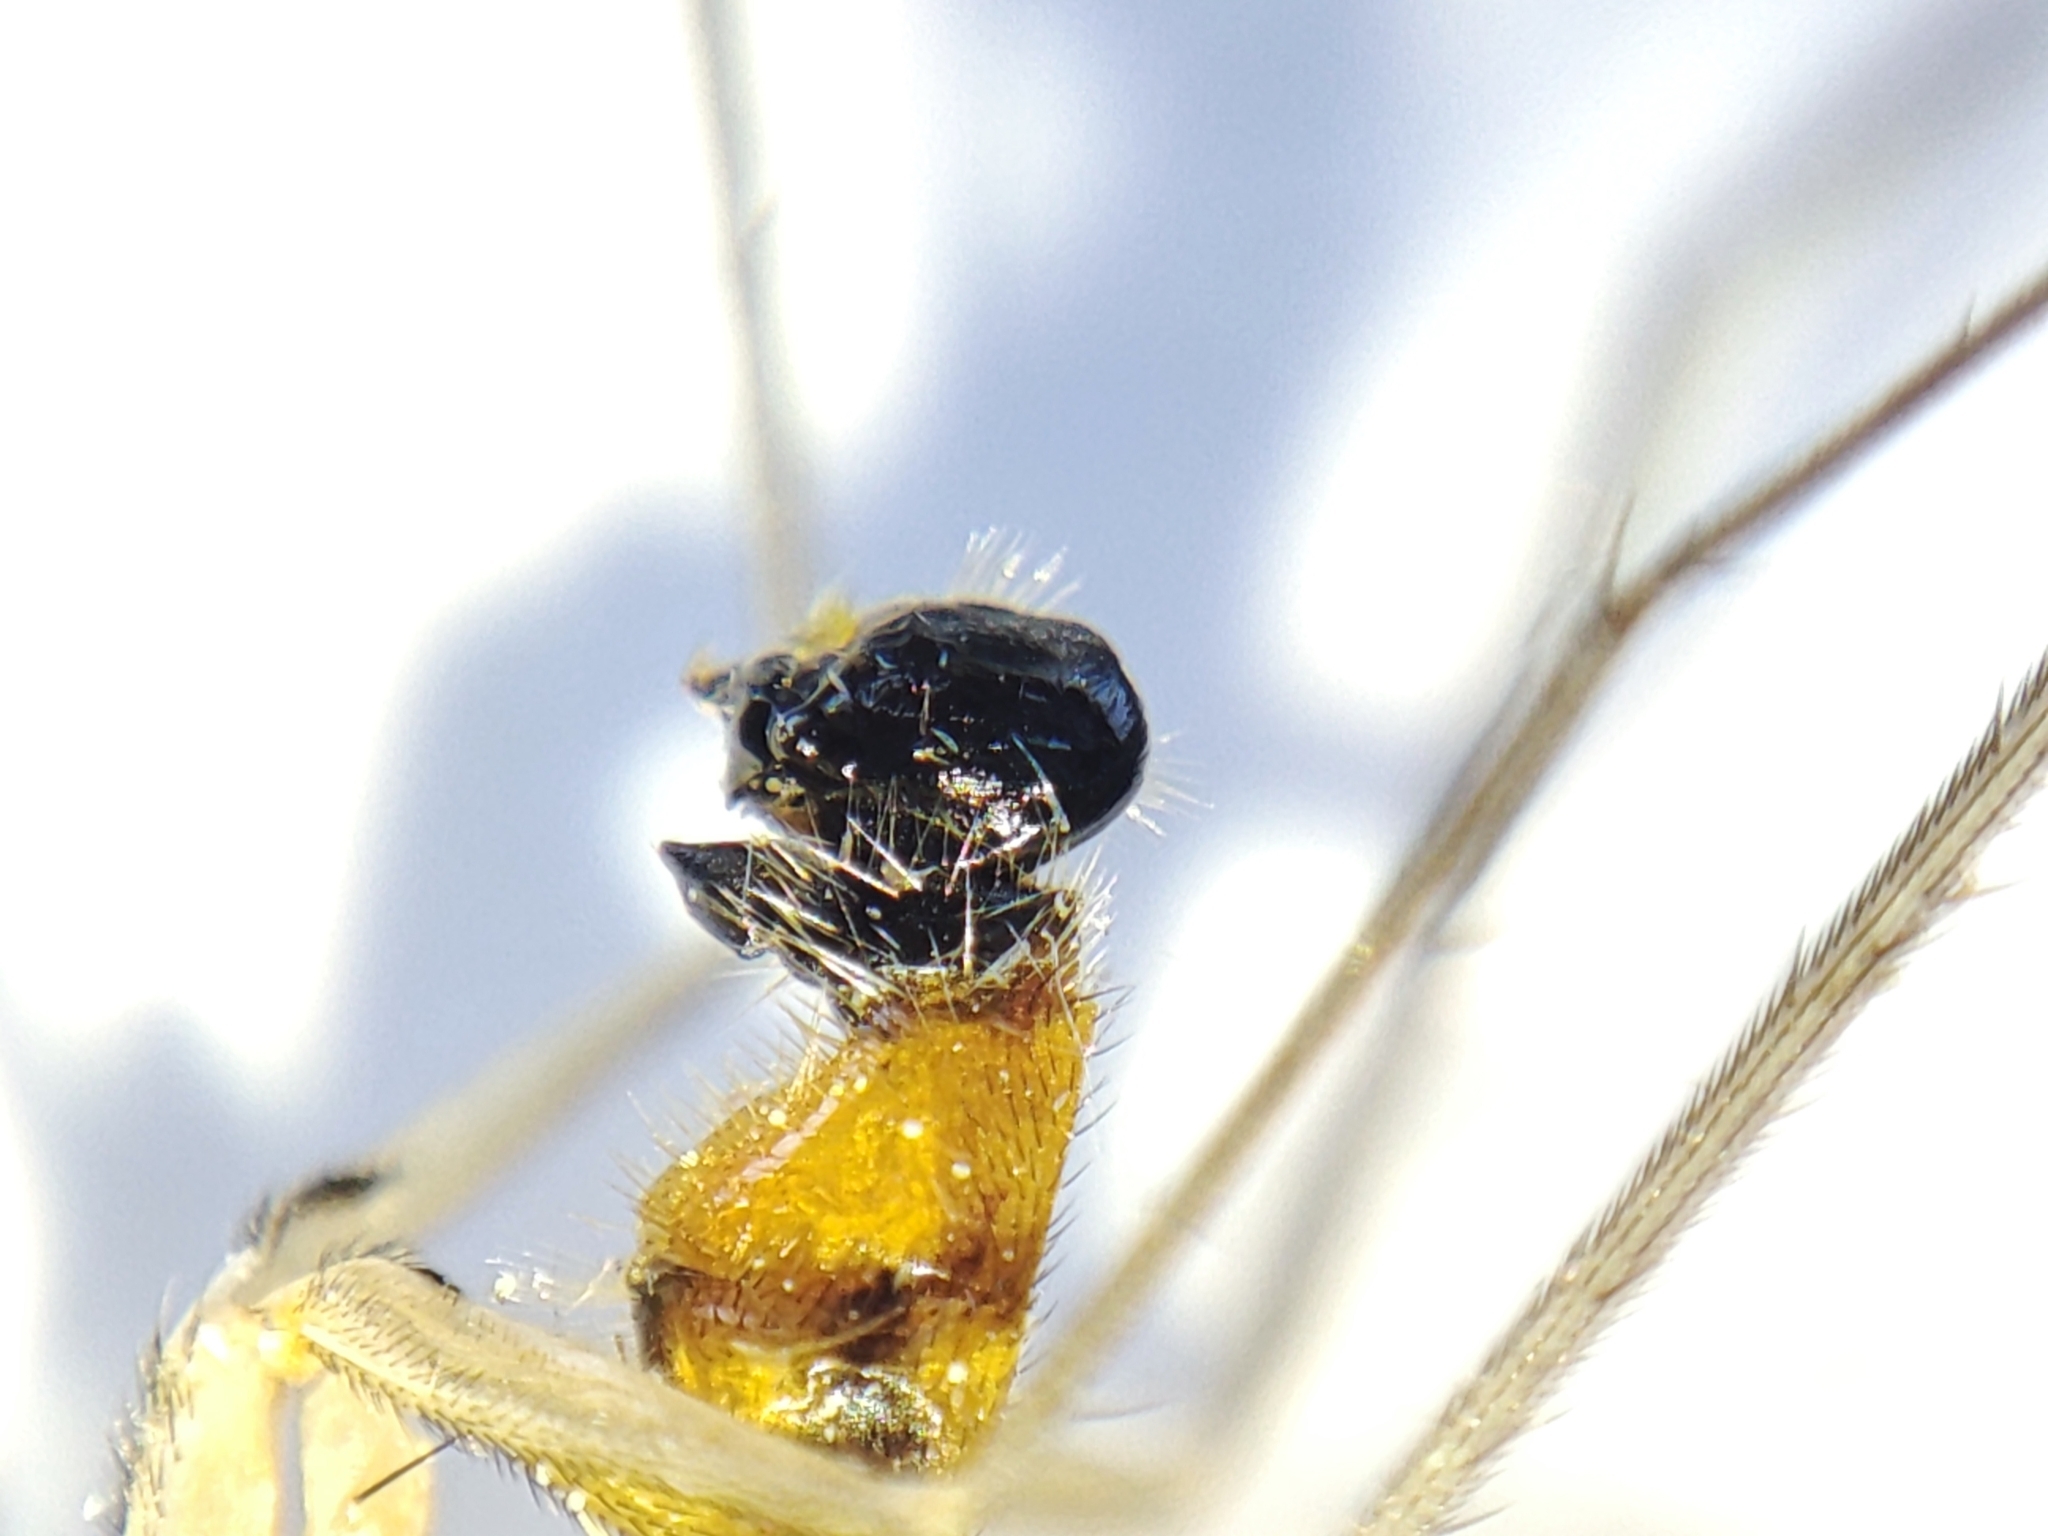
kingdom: Animalia
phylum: Arthropoda
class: Insecta
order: Diptera
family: Dolichopodidae
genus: Neurigona
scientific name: Neurigona pallida
